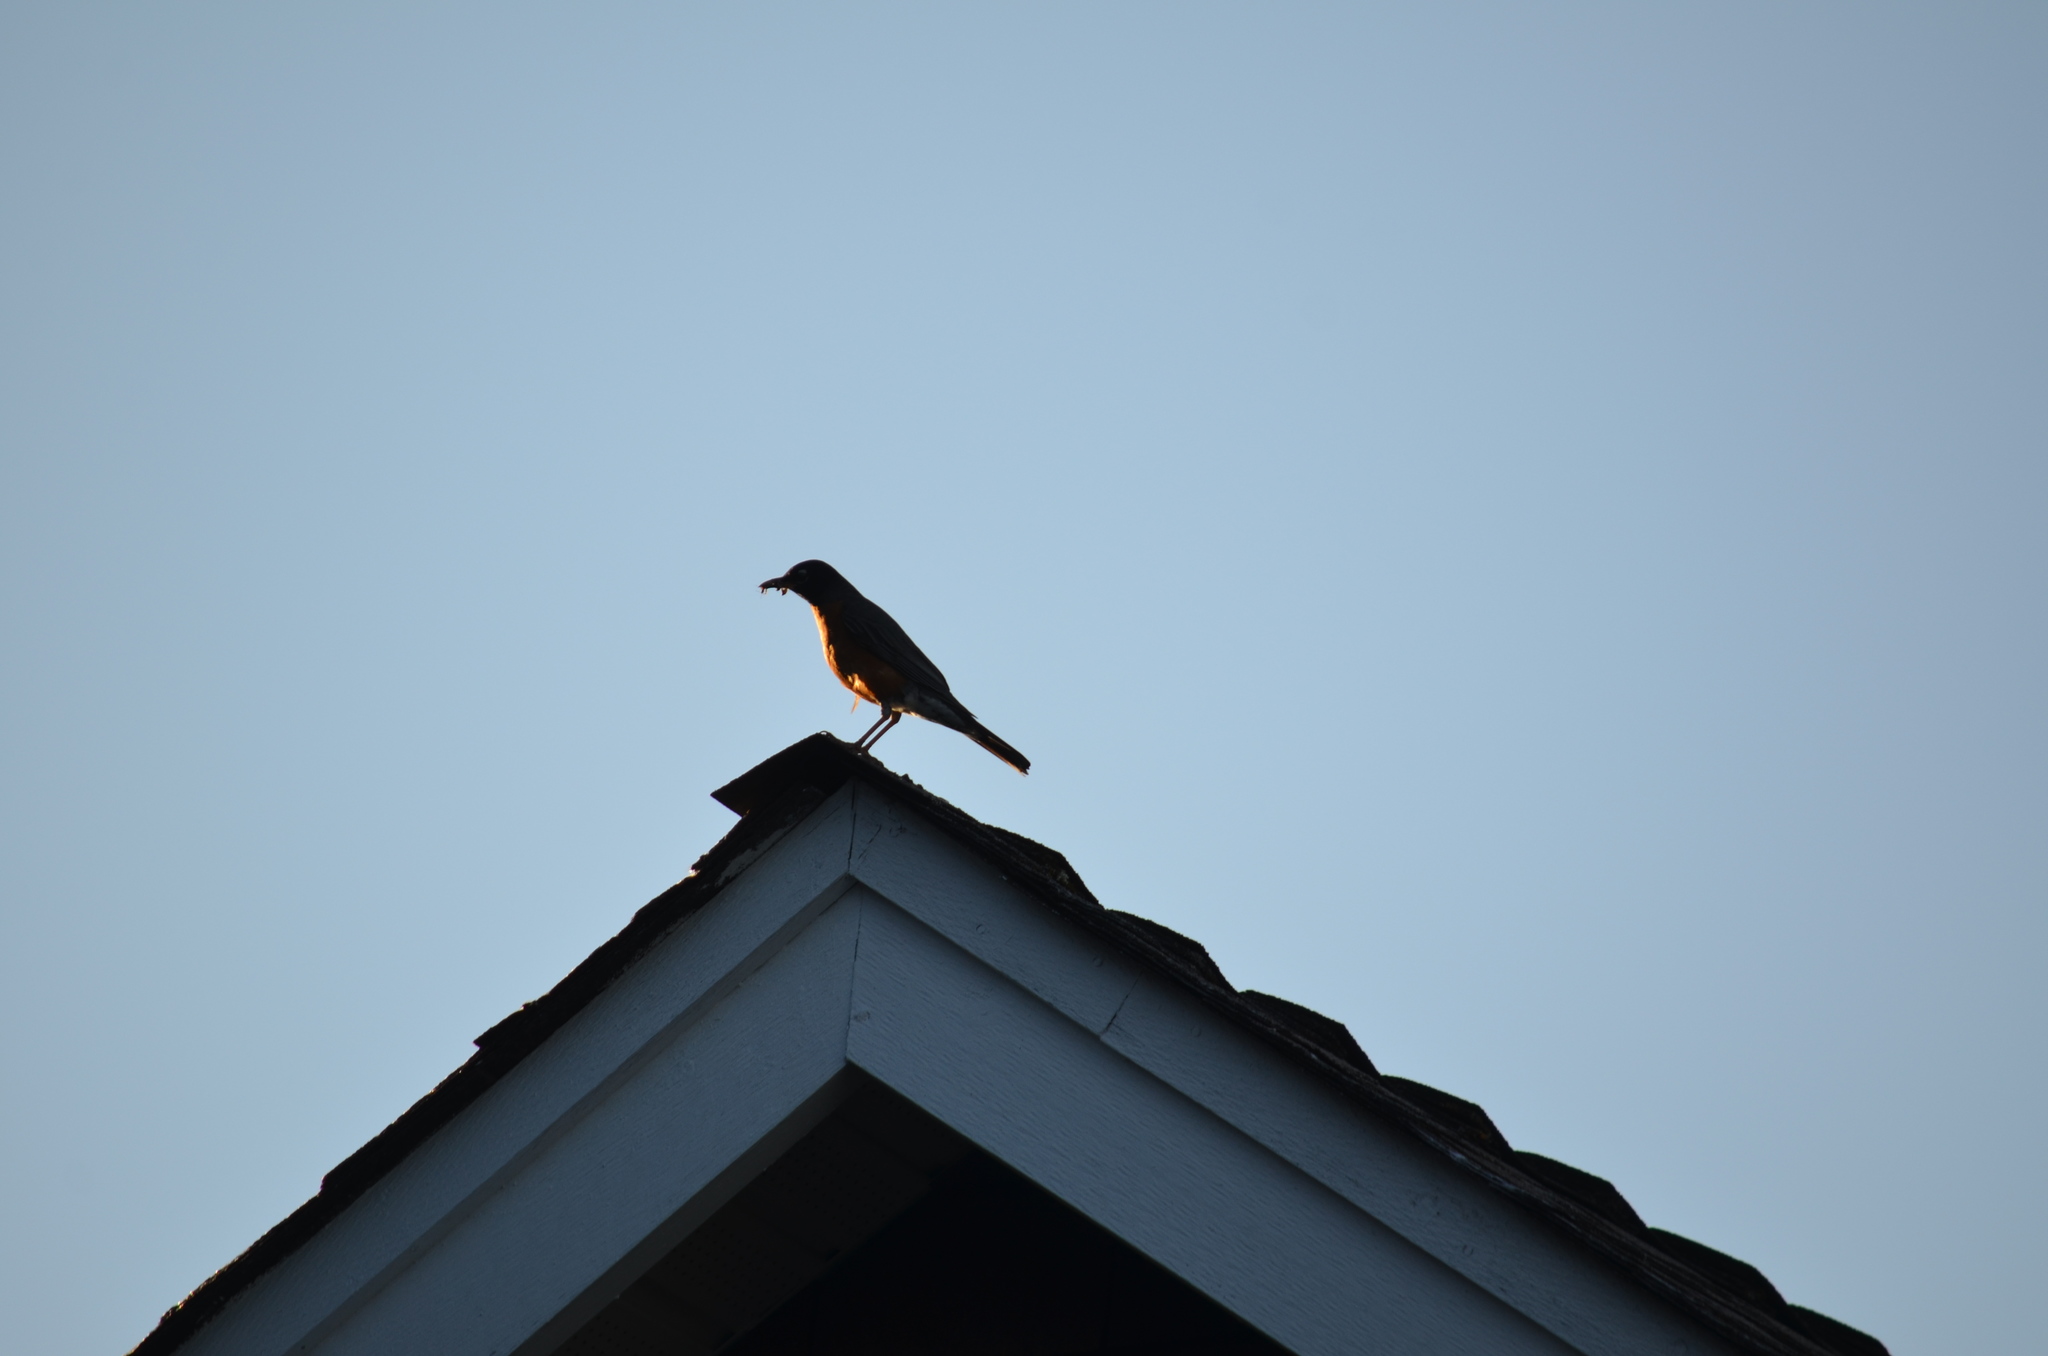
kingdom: Animalia
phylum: Chordata
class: Aves
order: Passeriformes
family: Turdidae
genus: Turdus
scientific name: Turdus migratorius
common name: American robin
